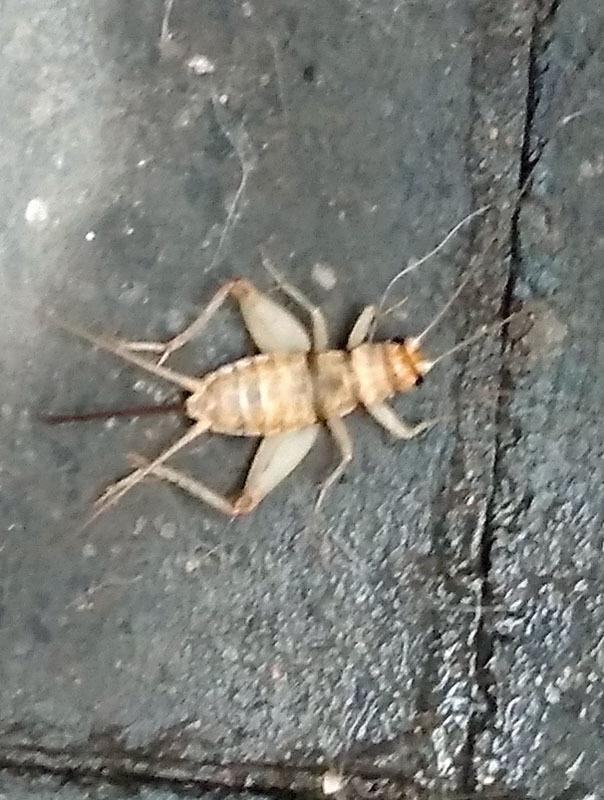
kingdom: Animalia
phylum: Arthropoda
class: Insecta
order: Orthoptera
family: Gryllidae
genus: Gryllodes
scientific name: Gryllodes sigillatus
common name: Tropical house cricket
